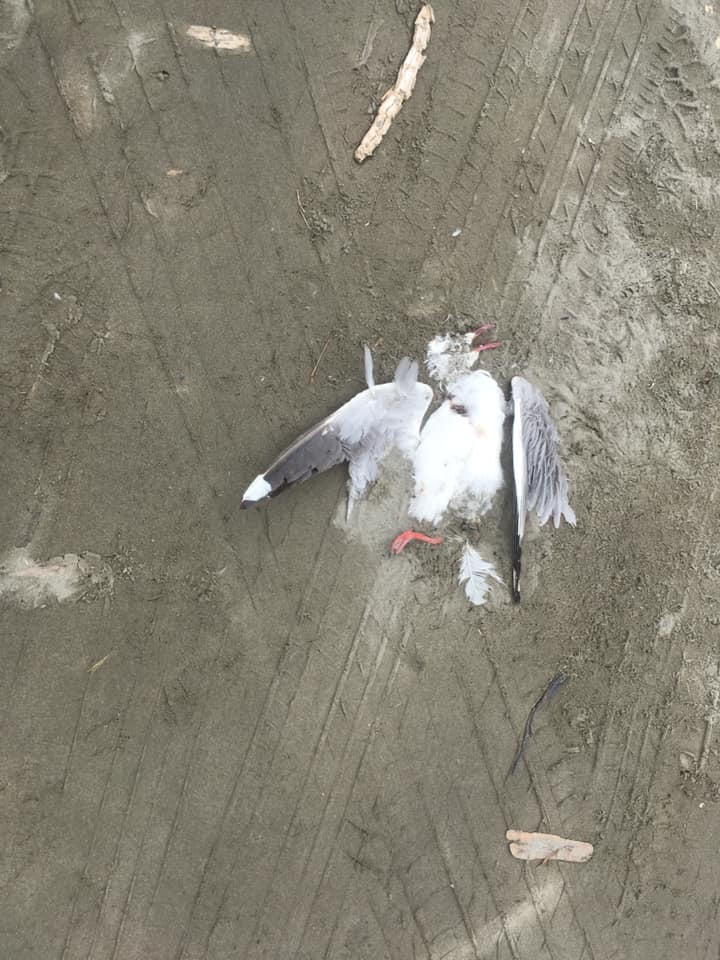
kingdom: Animalia
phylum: Chordata
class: Aves
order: Charadriiformes
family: Laridae
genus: Chroicocephalus
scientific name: Chroicocephalus novaehollandiae
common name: Silver gull
